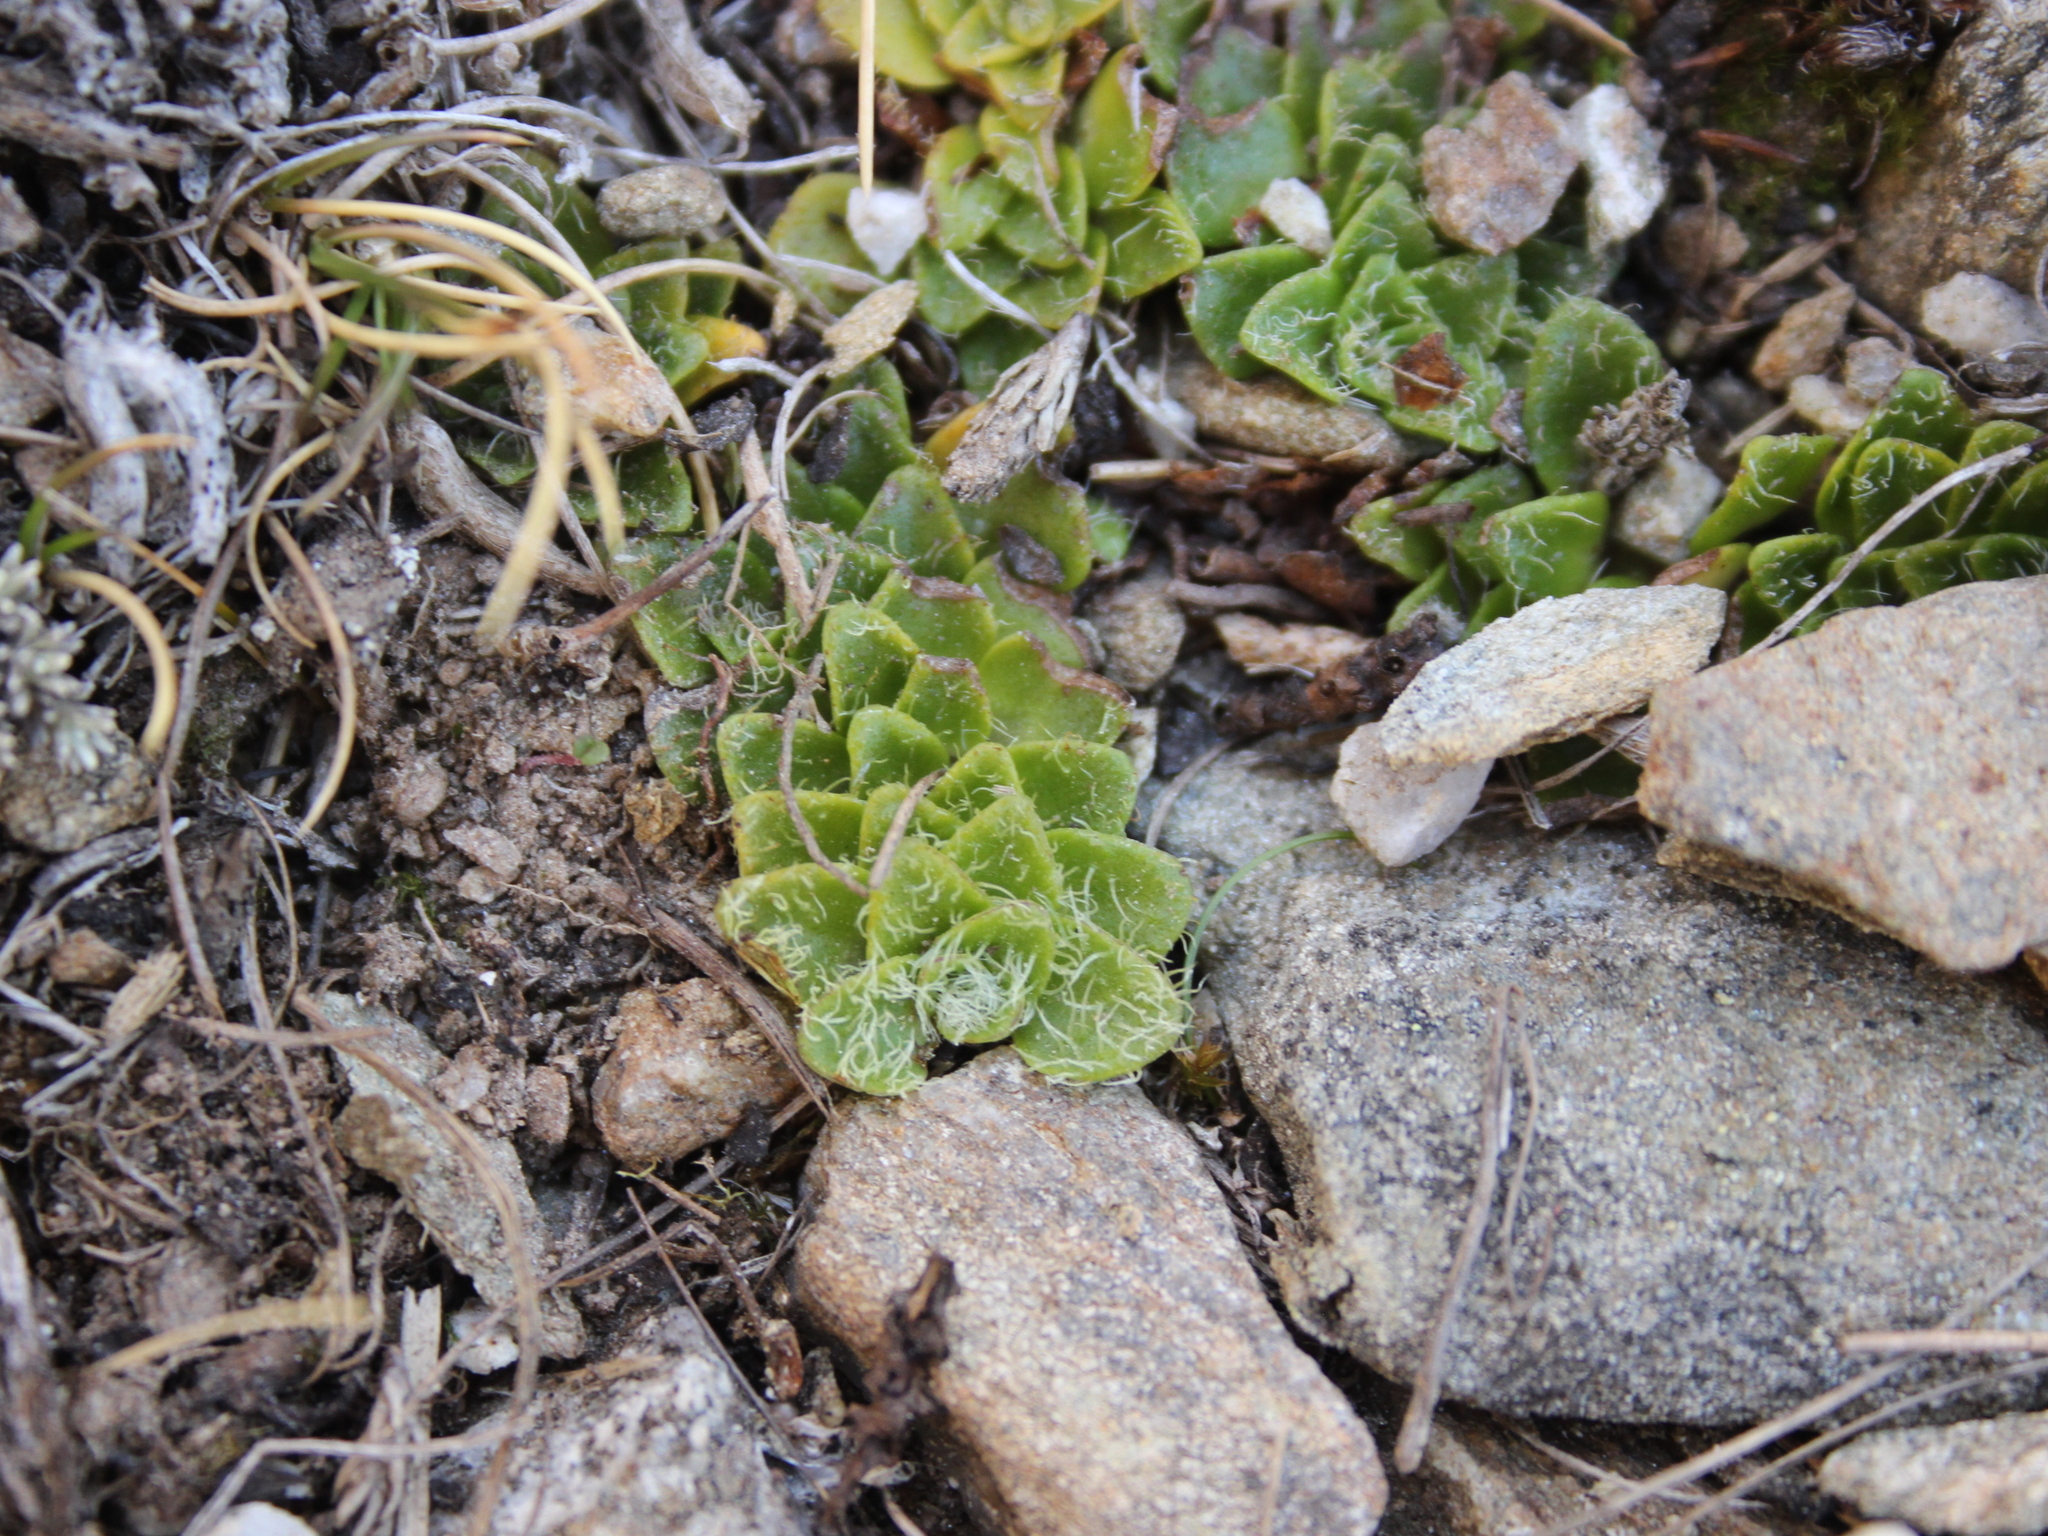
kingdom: Plantae
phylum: Tracheophyta
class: Magnoliopsida
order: Lamiales
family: Plantaginaceae
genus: Ourisia
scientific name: Ourisia glandulosa
